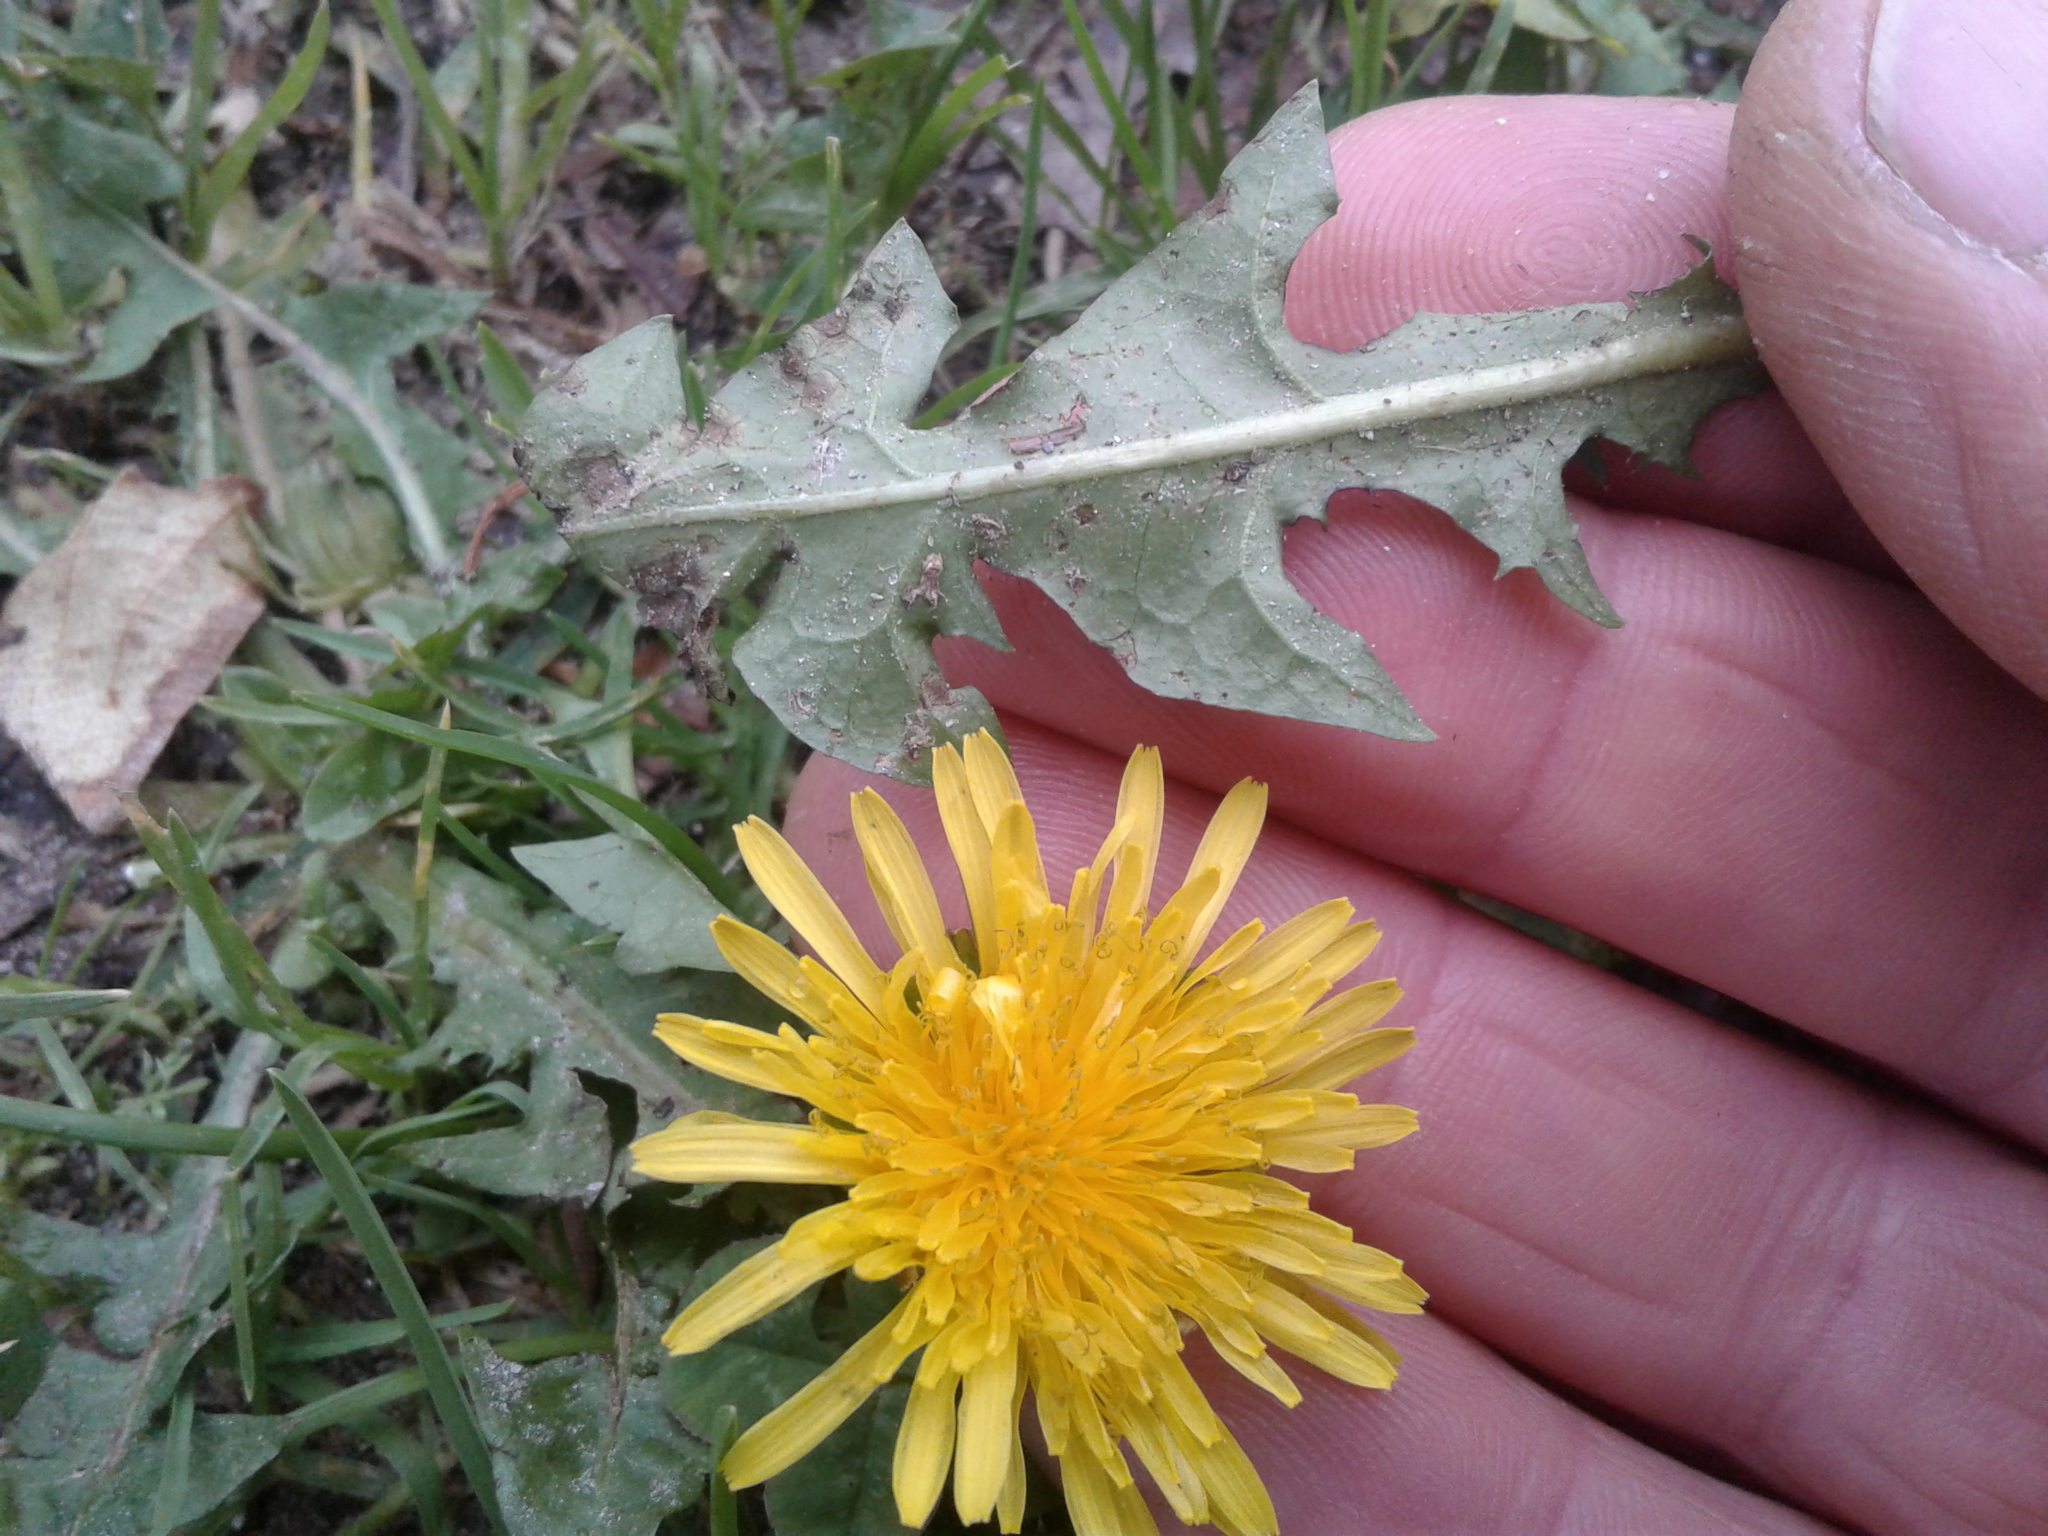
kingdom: Plantae
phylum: Tracheophyta
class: Magnoliopsida
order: Asterales
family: Asteraceae
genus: Taraxacum
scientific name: Taraxacum officinale
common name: Common dandelion
